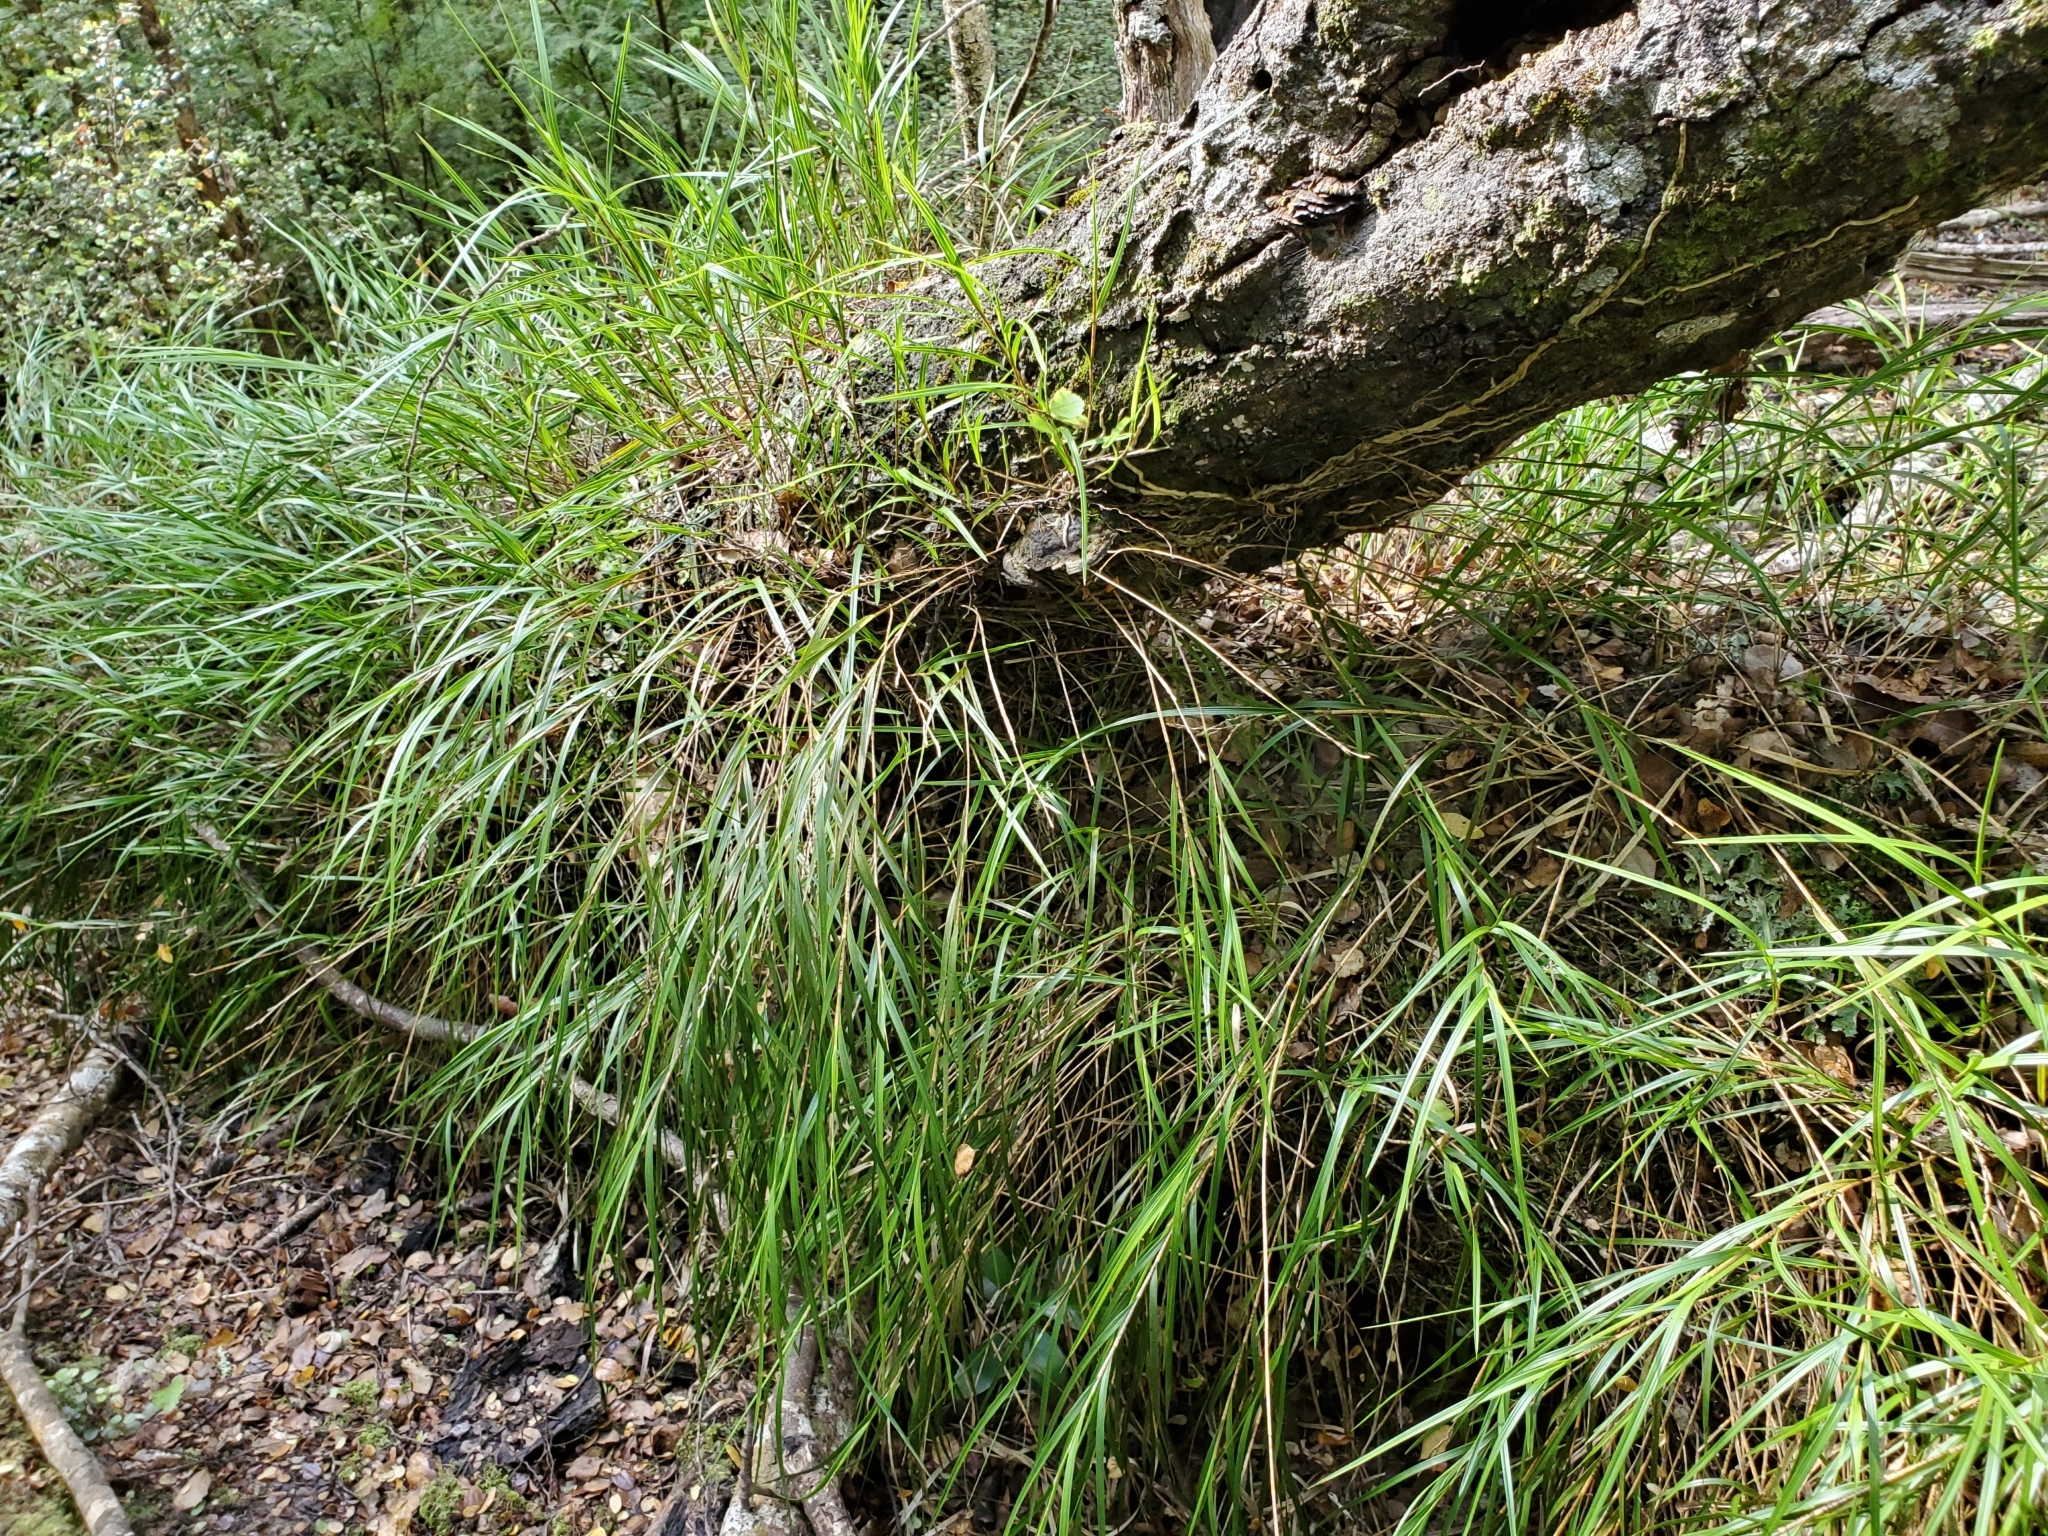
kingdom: Plantae
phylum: Tracheophyta
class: Liliopsida
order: Asparagales
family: Orchidaceae
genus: Earina
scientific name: Earina mucronata
